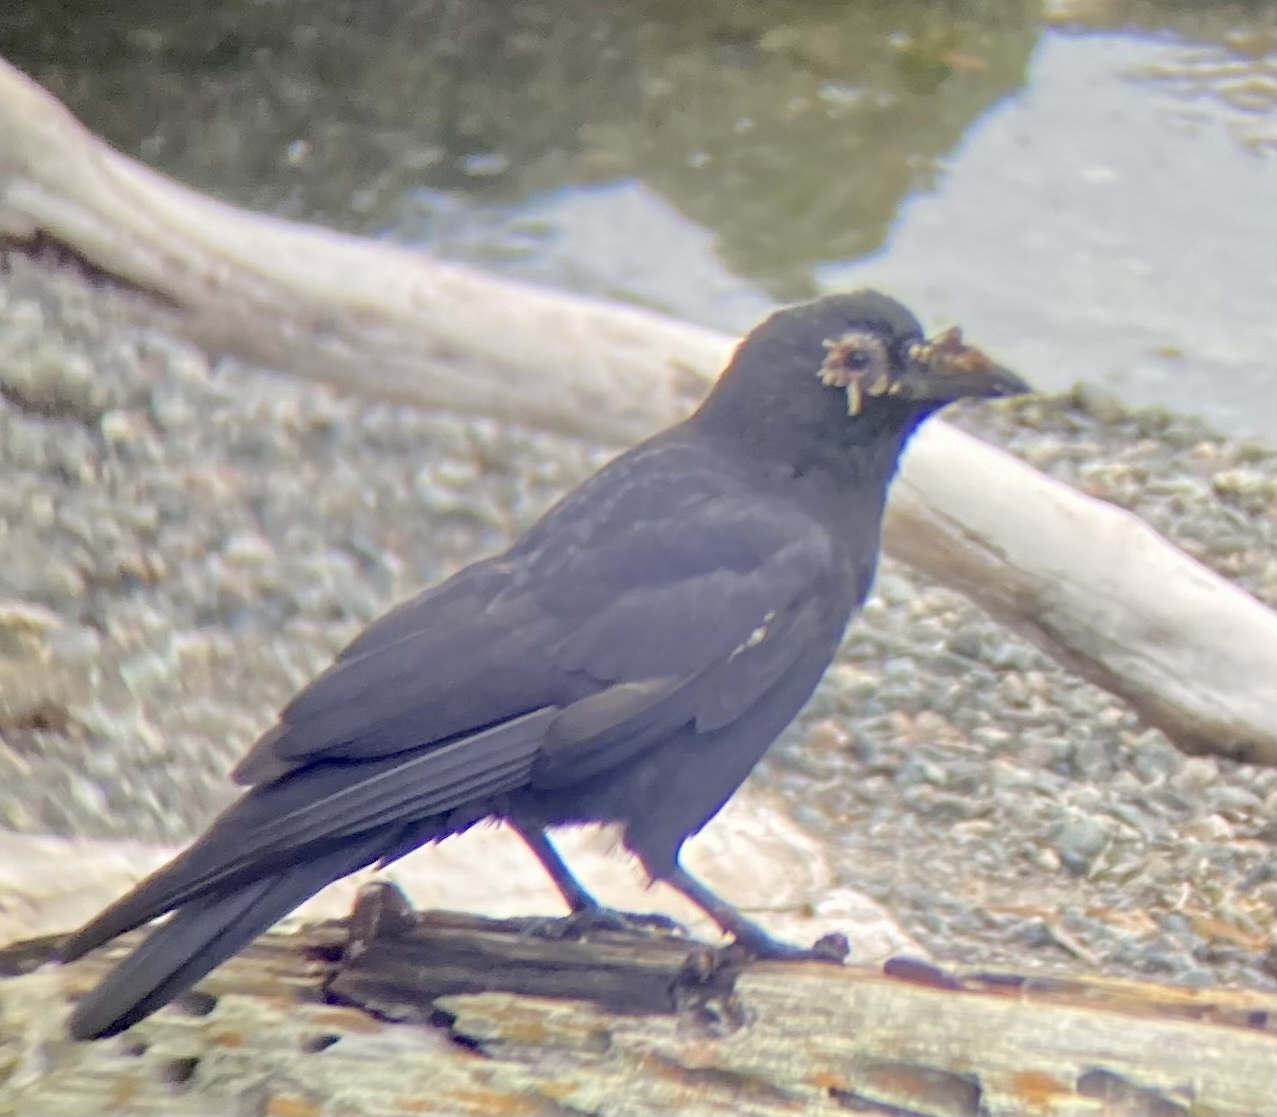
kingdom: Animalia
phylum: Chordata
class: Aves
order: Passeriformes
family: Corvidae
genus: Corvus
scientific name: Corvus brachyrhynchos
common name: American crow
